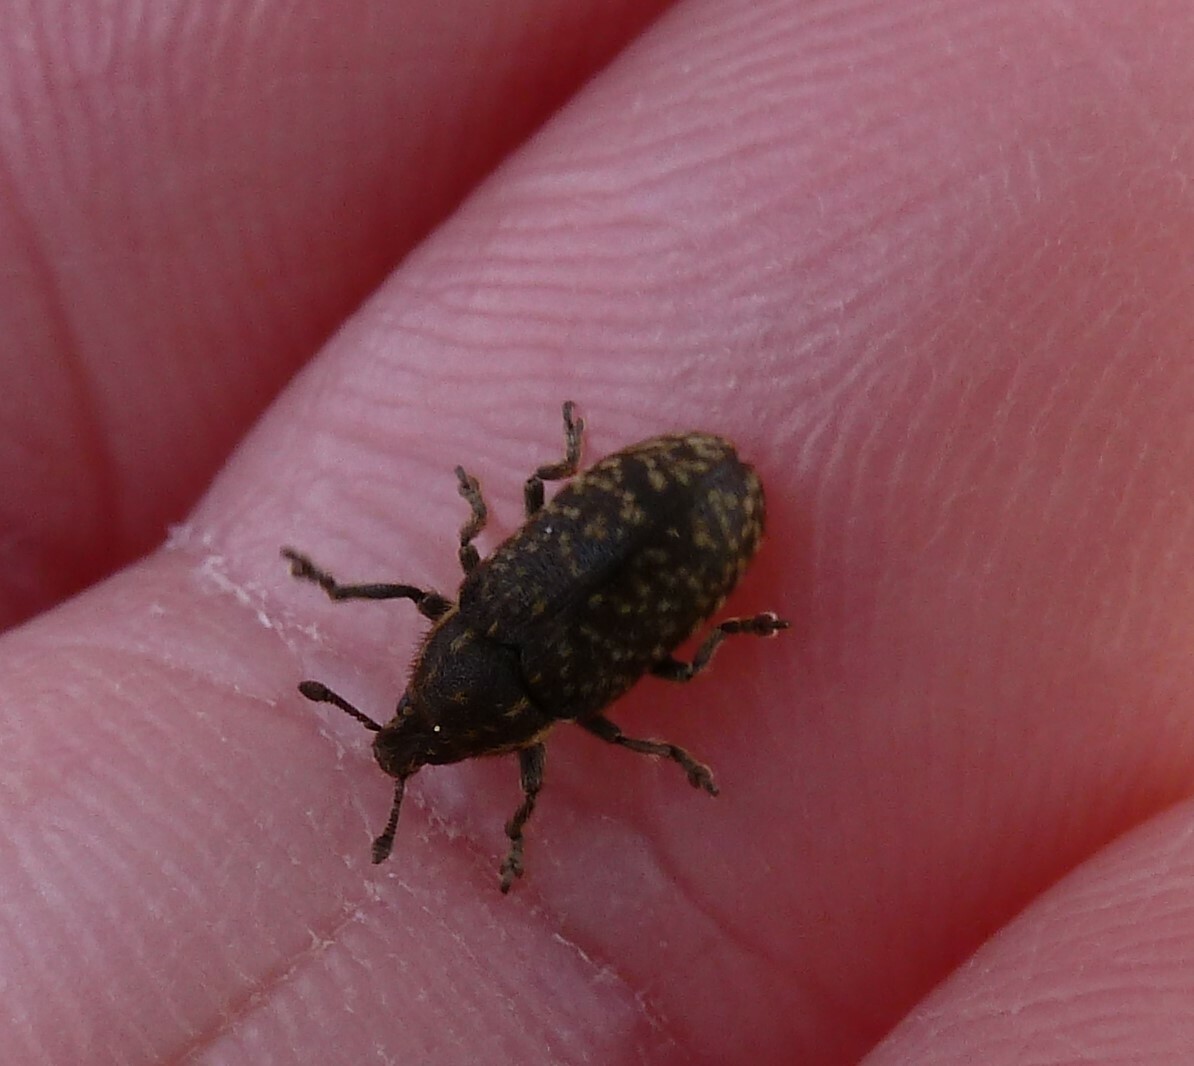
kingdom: Animalia
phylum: Arthropoda
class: Insecta
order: Coleoptera
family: Curculionidae
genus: Rhinocyllus
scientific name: Rhinocyllus conicus
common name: Weevil
